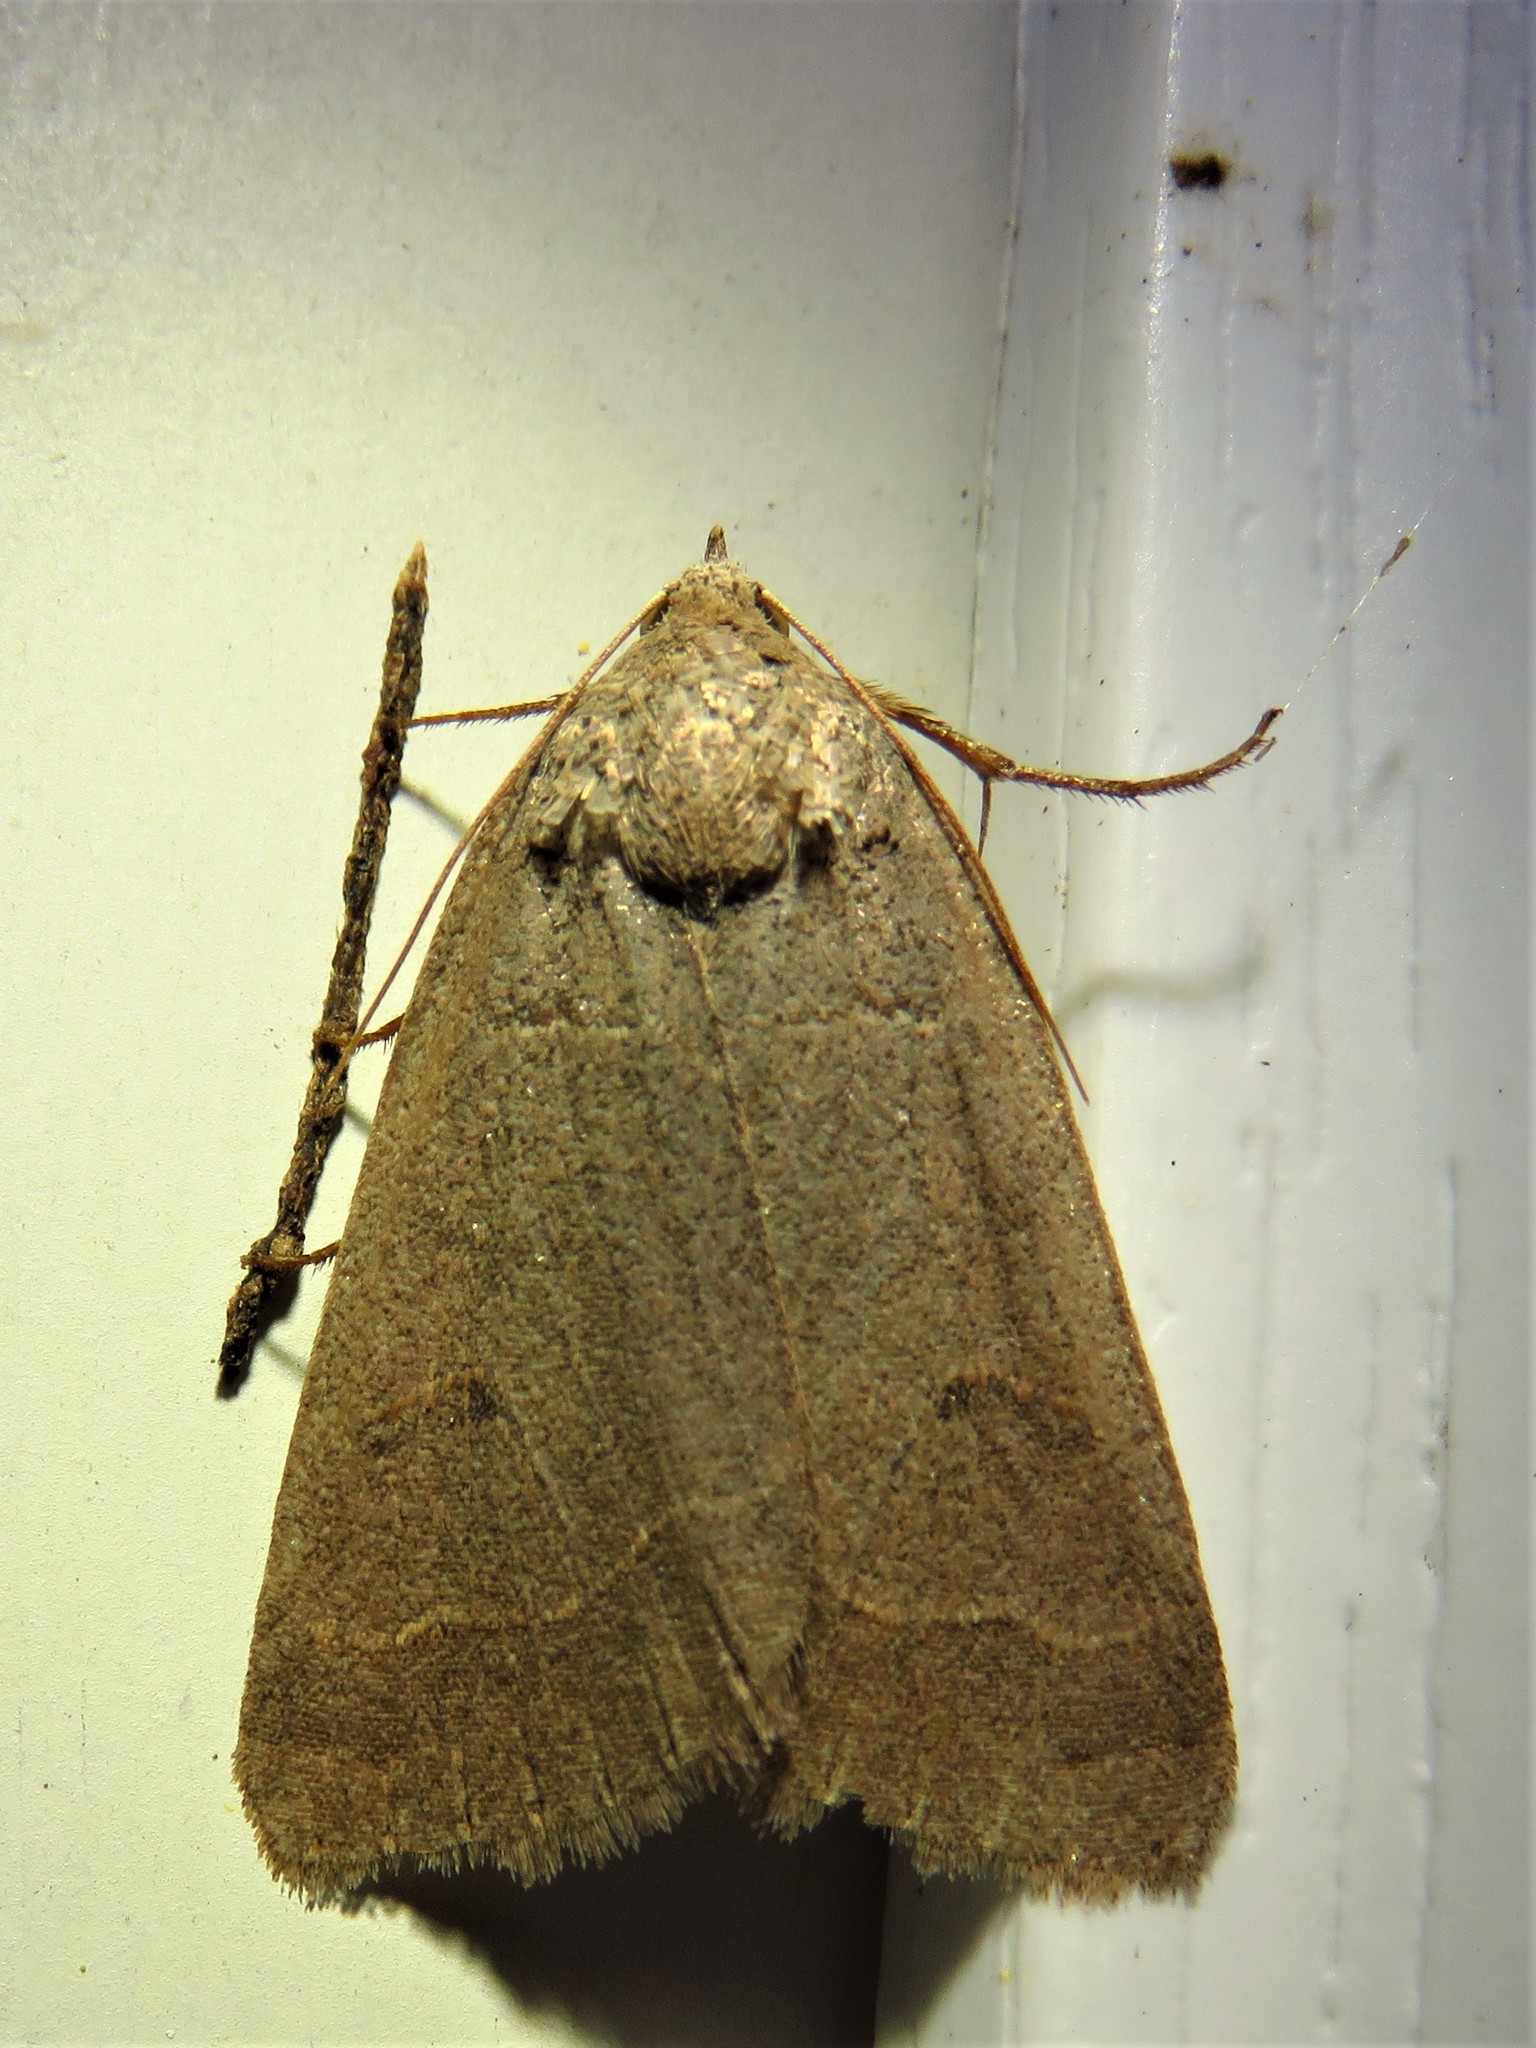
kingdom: Animalia
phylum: Arthropoda
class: Insecta
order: Lepidoptera
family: Erebidae
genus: Phoberia
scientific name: Phoberia atomaris
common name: Common oak moth
